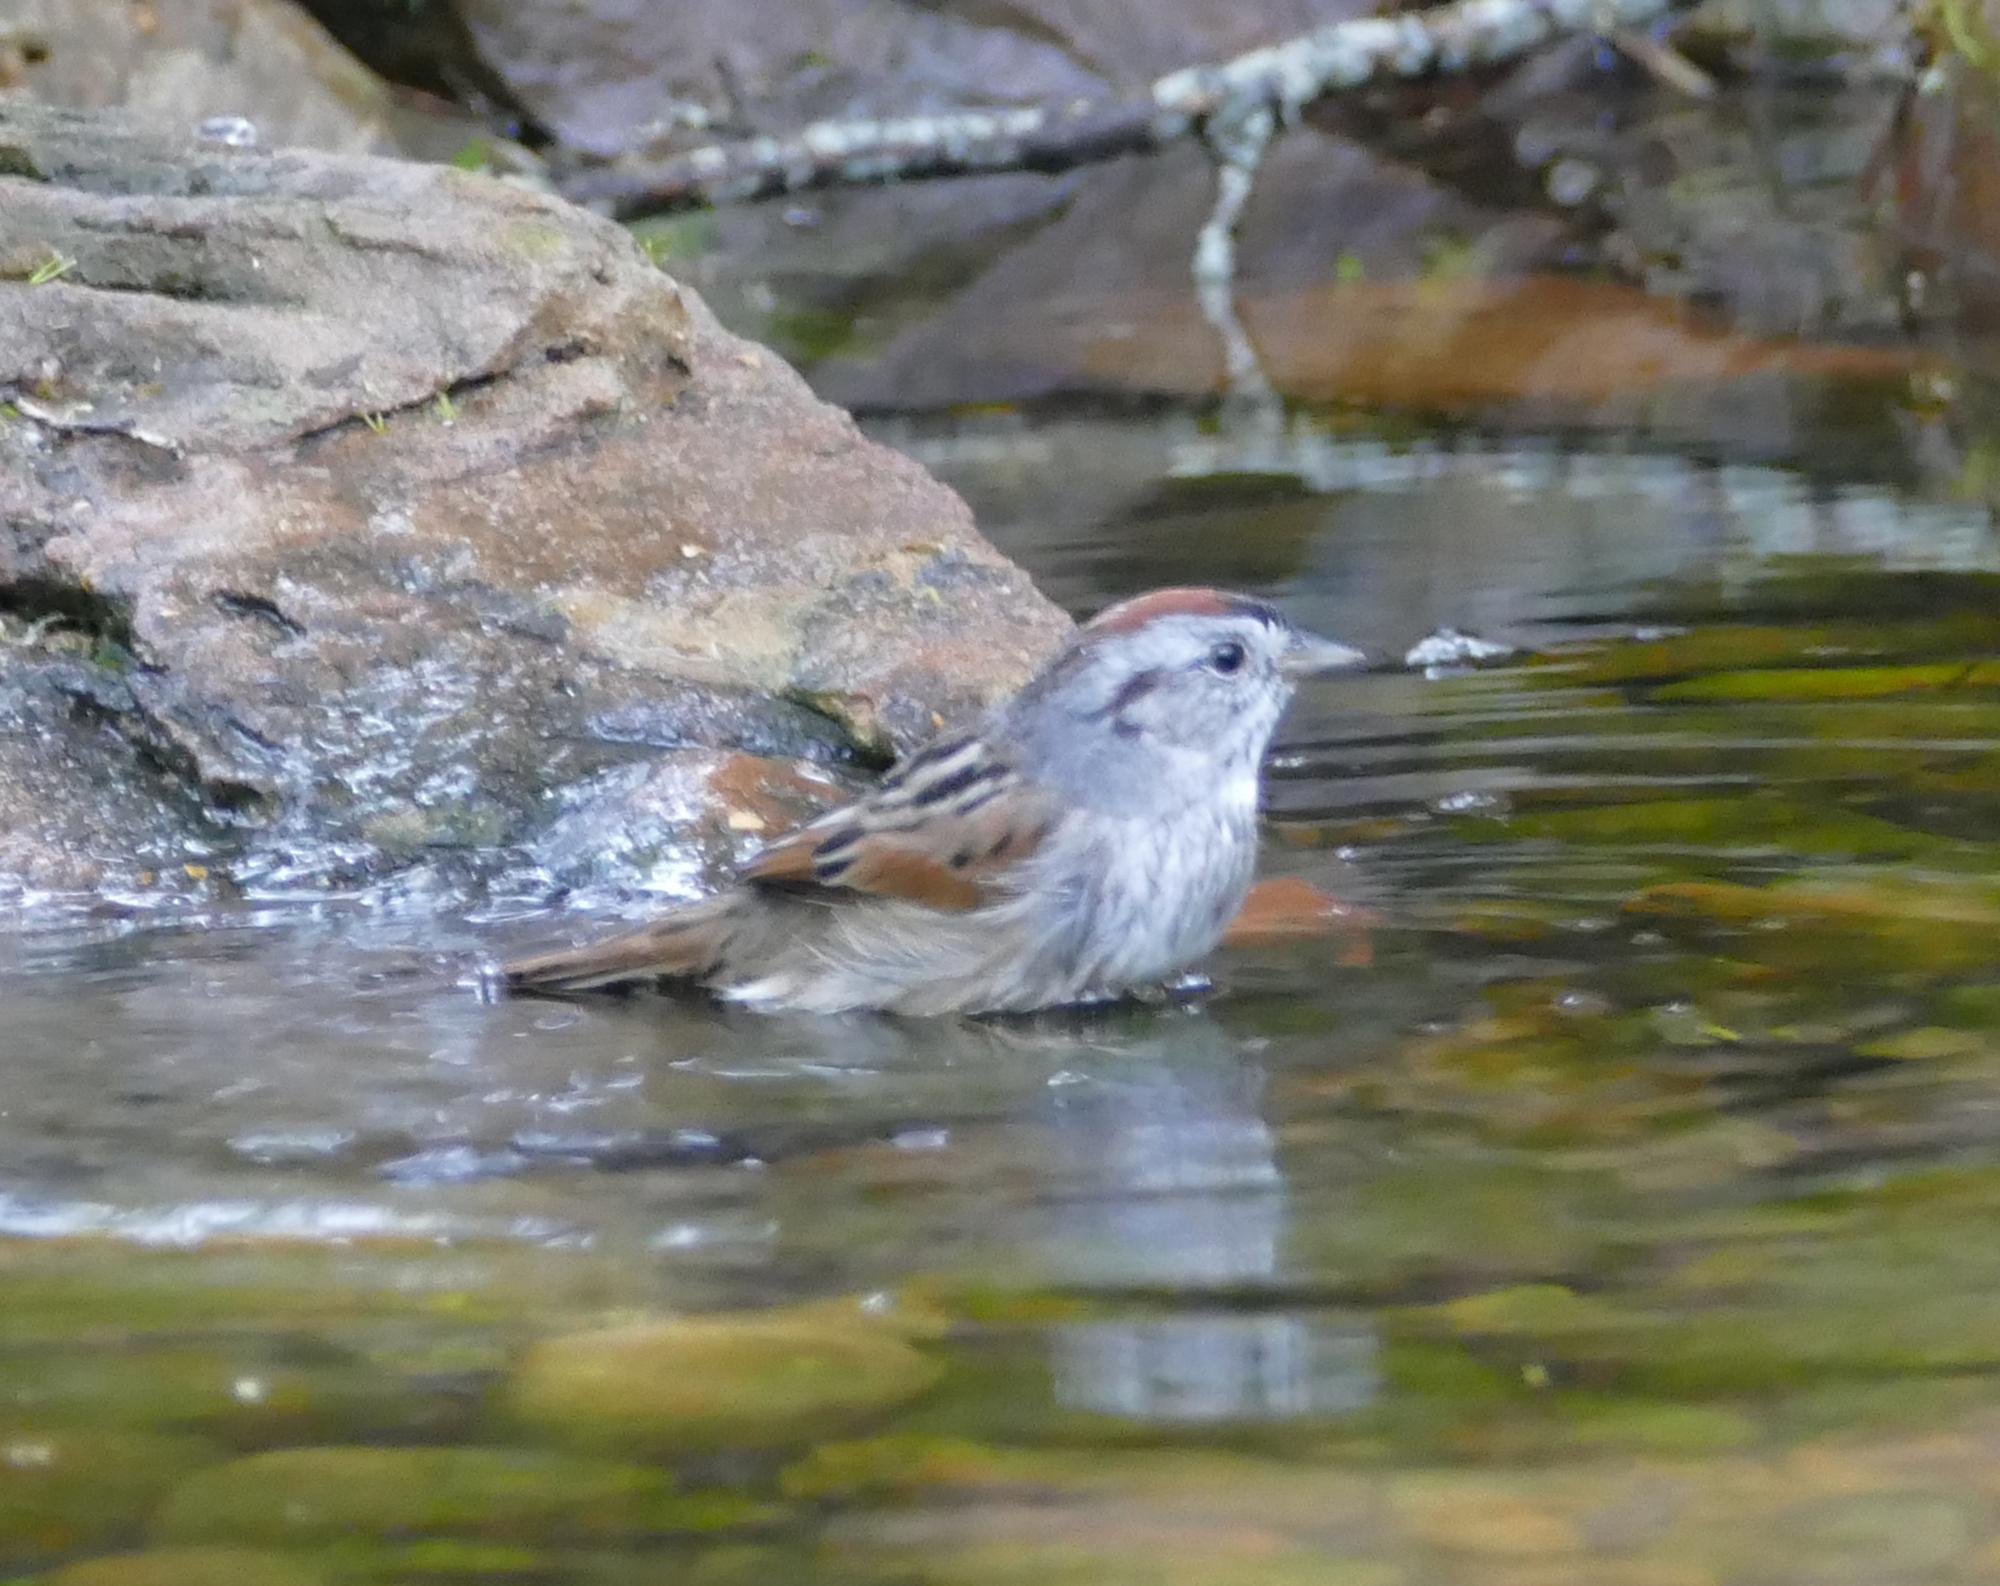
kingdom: Animalia
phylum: Chordata
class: Aves
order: Passeriformes
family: Passerellidae
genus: Melospiza
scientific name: Melospiza georgiana
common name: Swamp sparrow
